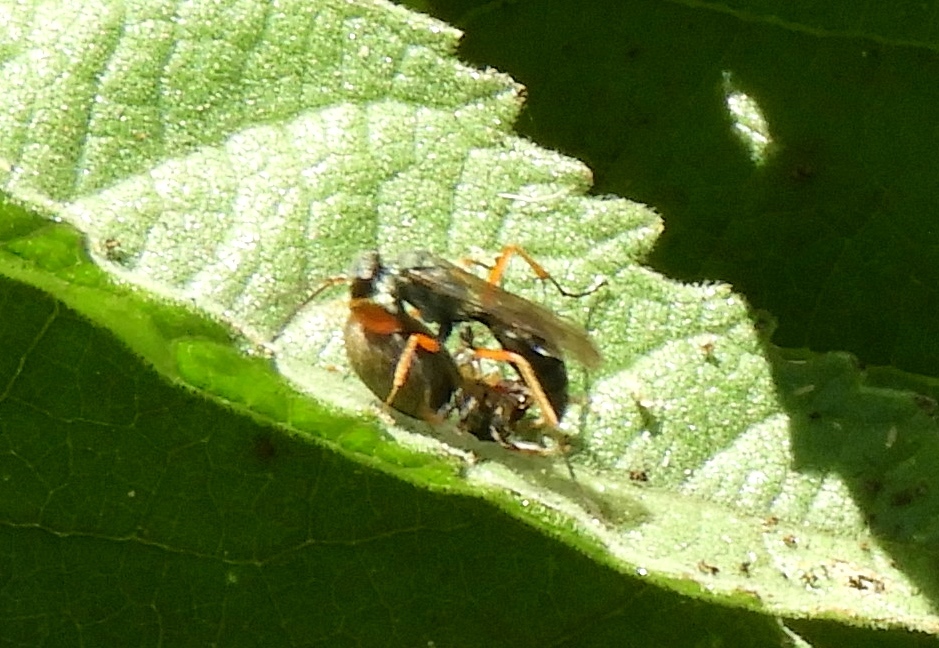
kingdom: Animalia
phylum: Arthropoda
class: Insecta
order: Hymenoptera
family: Pompilidae
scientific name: Pompilidae
